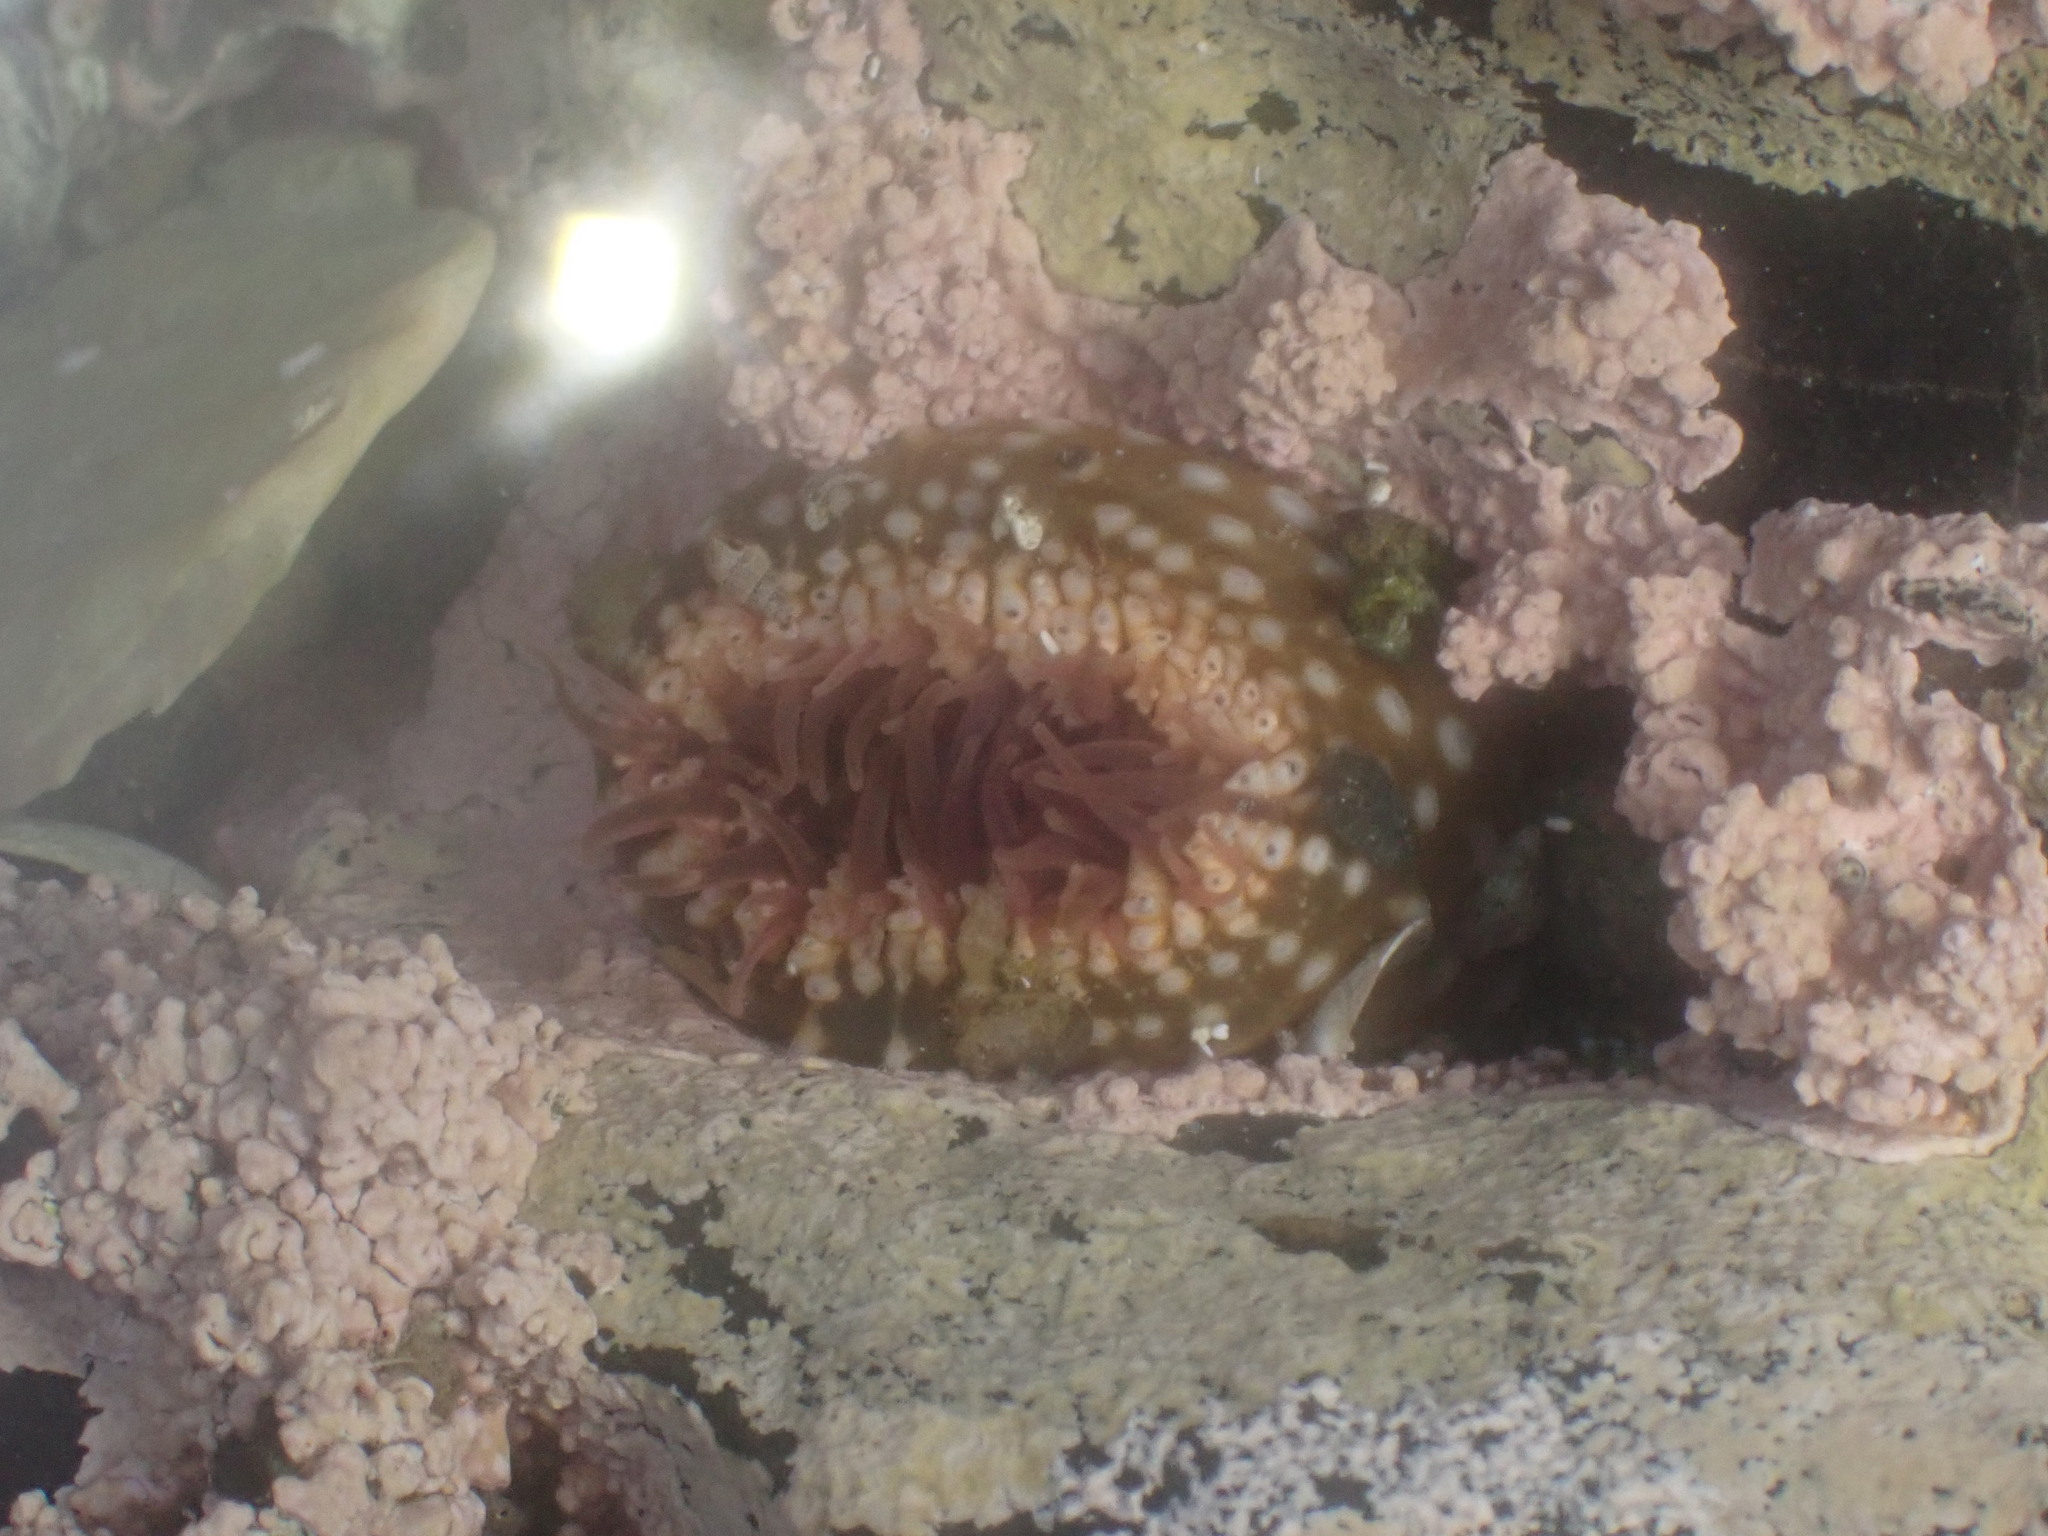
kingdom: Animalia
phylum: Cnidaria
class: Anthozoa
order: Actiniaria
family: Actiniidae
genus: Oulactis
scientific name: Oulactis muscosa
